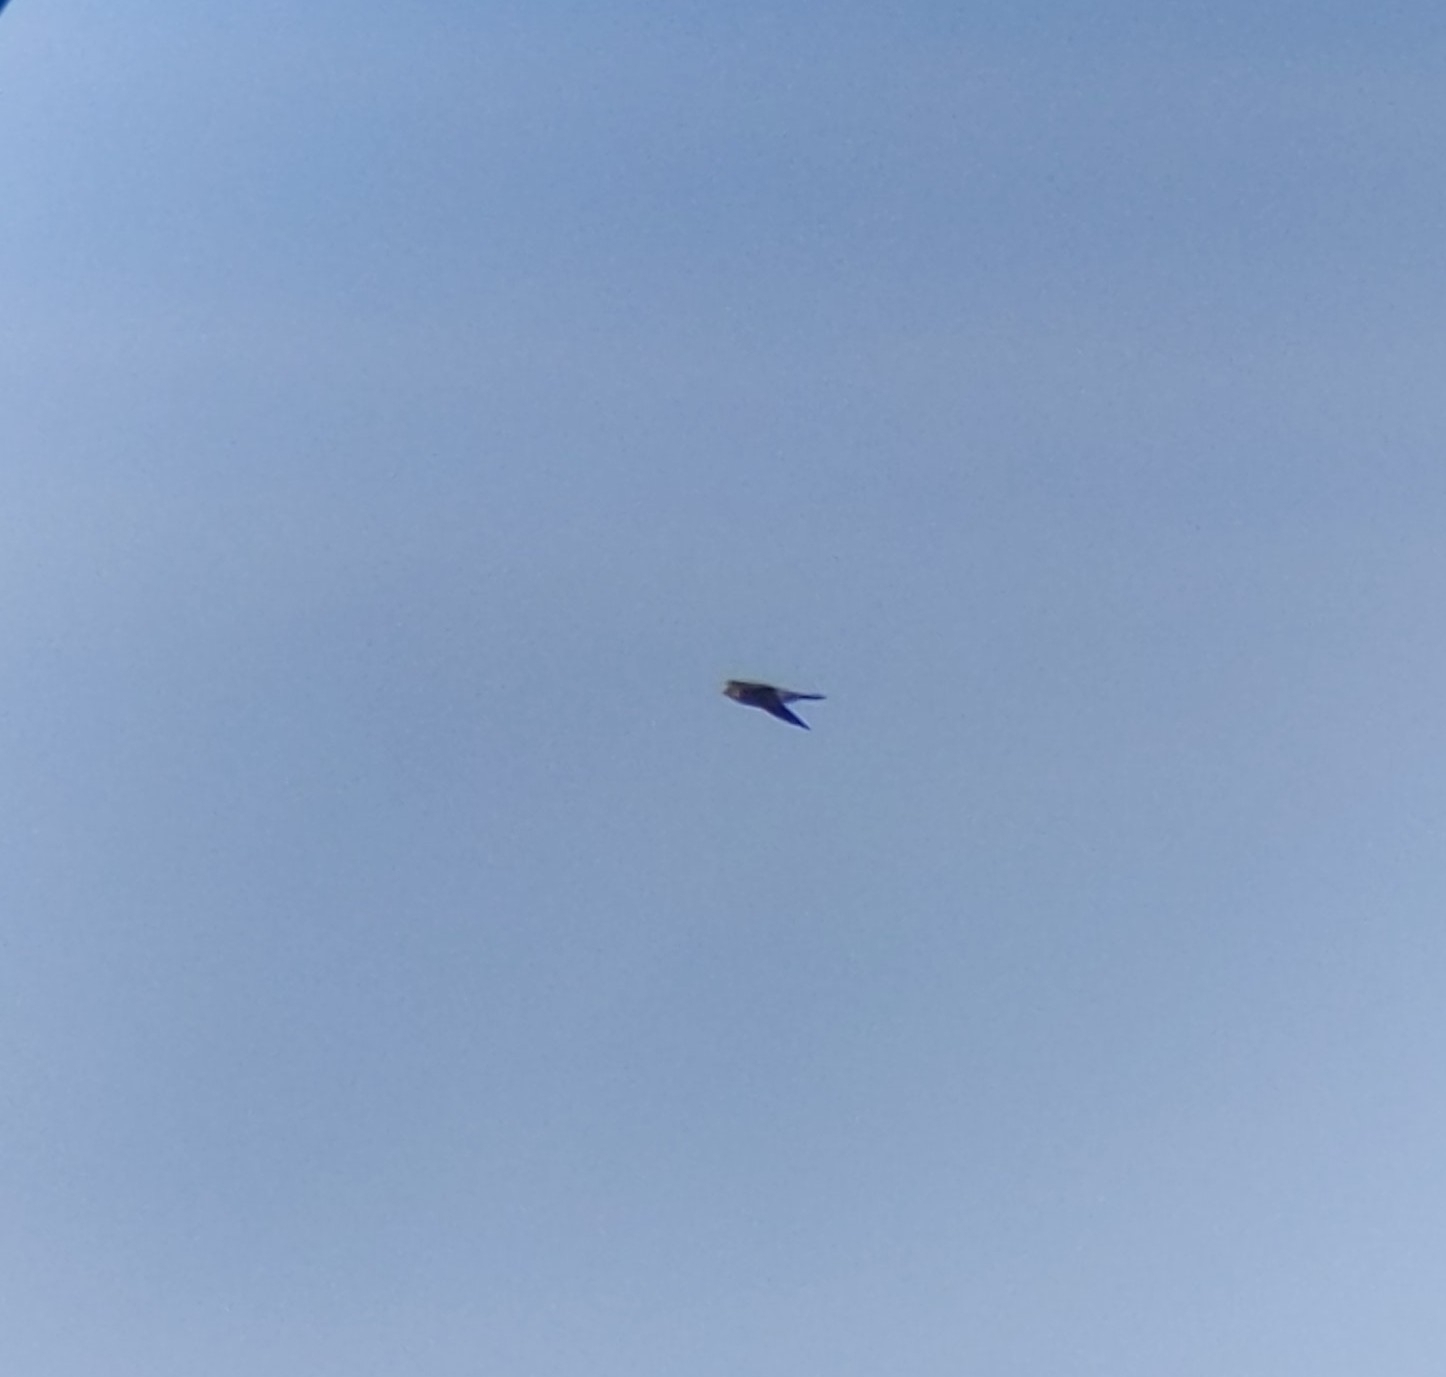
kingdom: Animalia
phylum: Chordata
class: Aves
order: Falconiformes
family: Falconidae
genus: Falco
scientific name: Falco subbuteo
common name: Eurasian hobby
